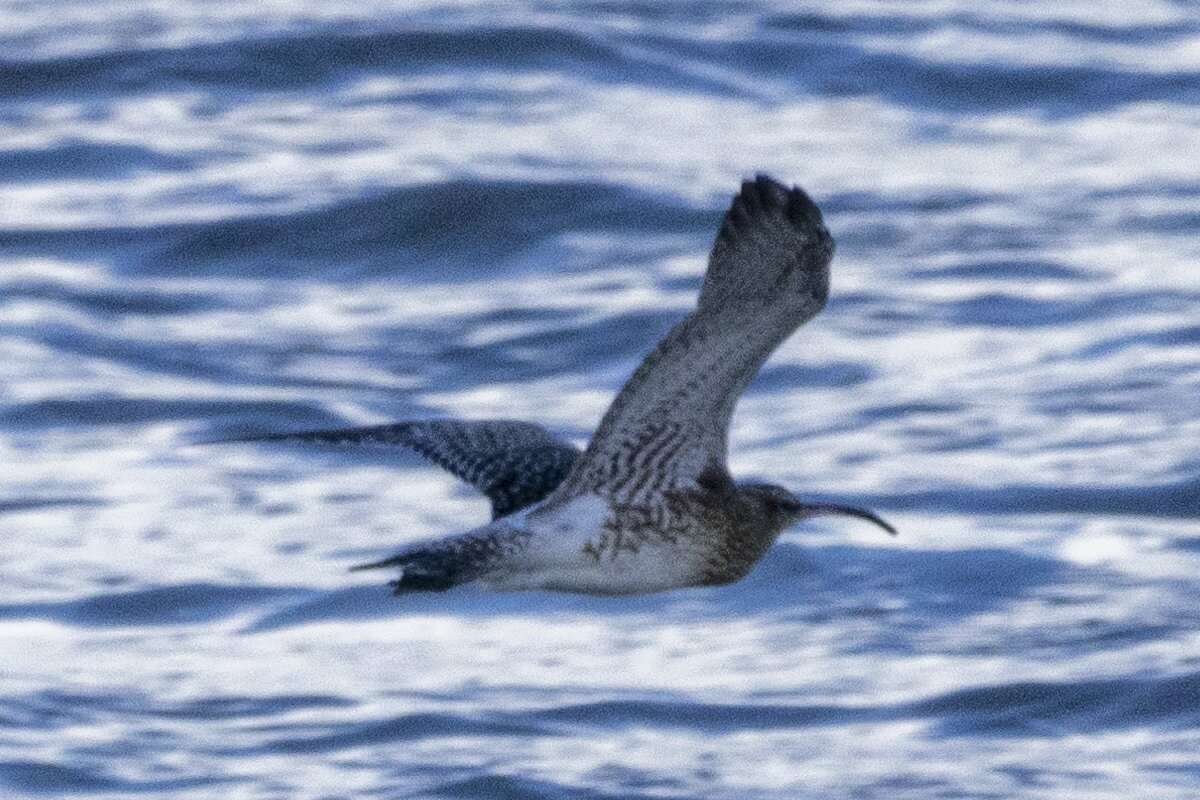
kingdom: Animalia
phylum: Chordata
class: Aves
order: Charadriiformes
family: Scolopacidae
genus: Numenius
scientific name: Numenius arquata
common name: Eurasian curlew
